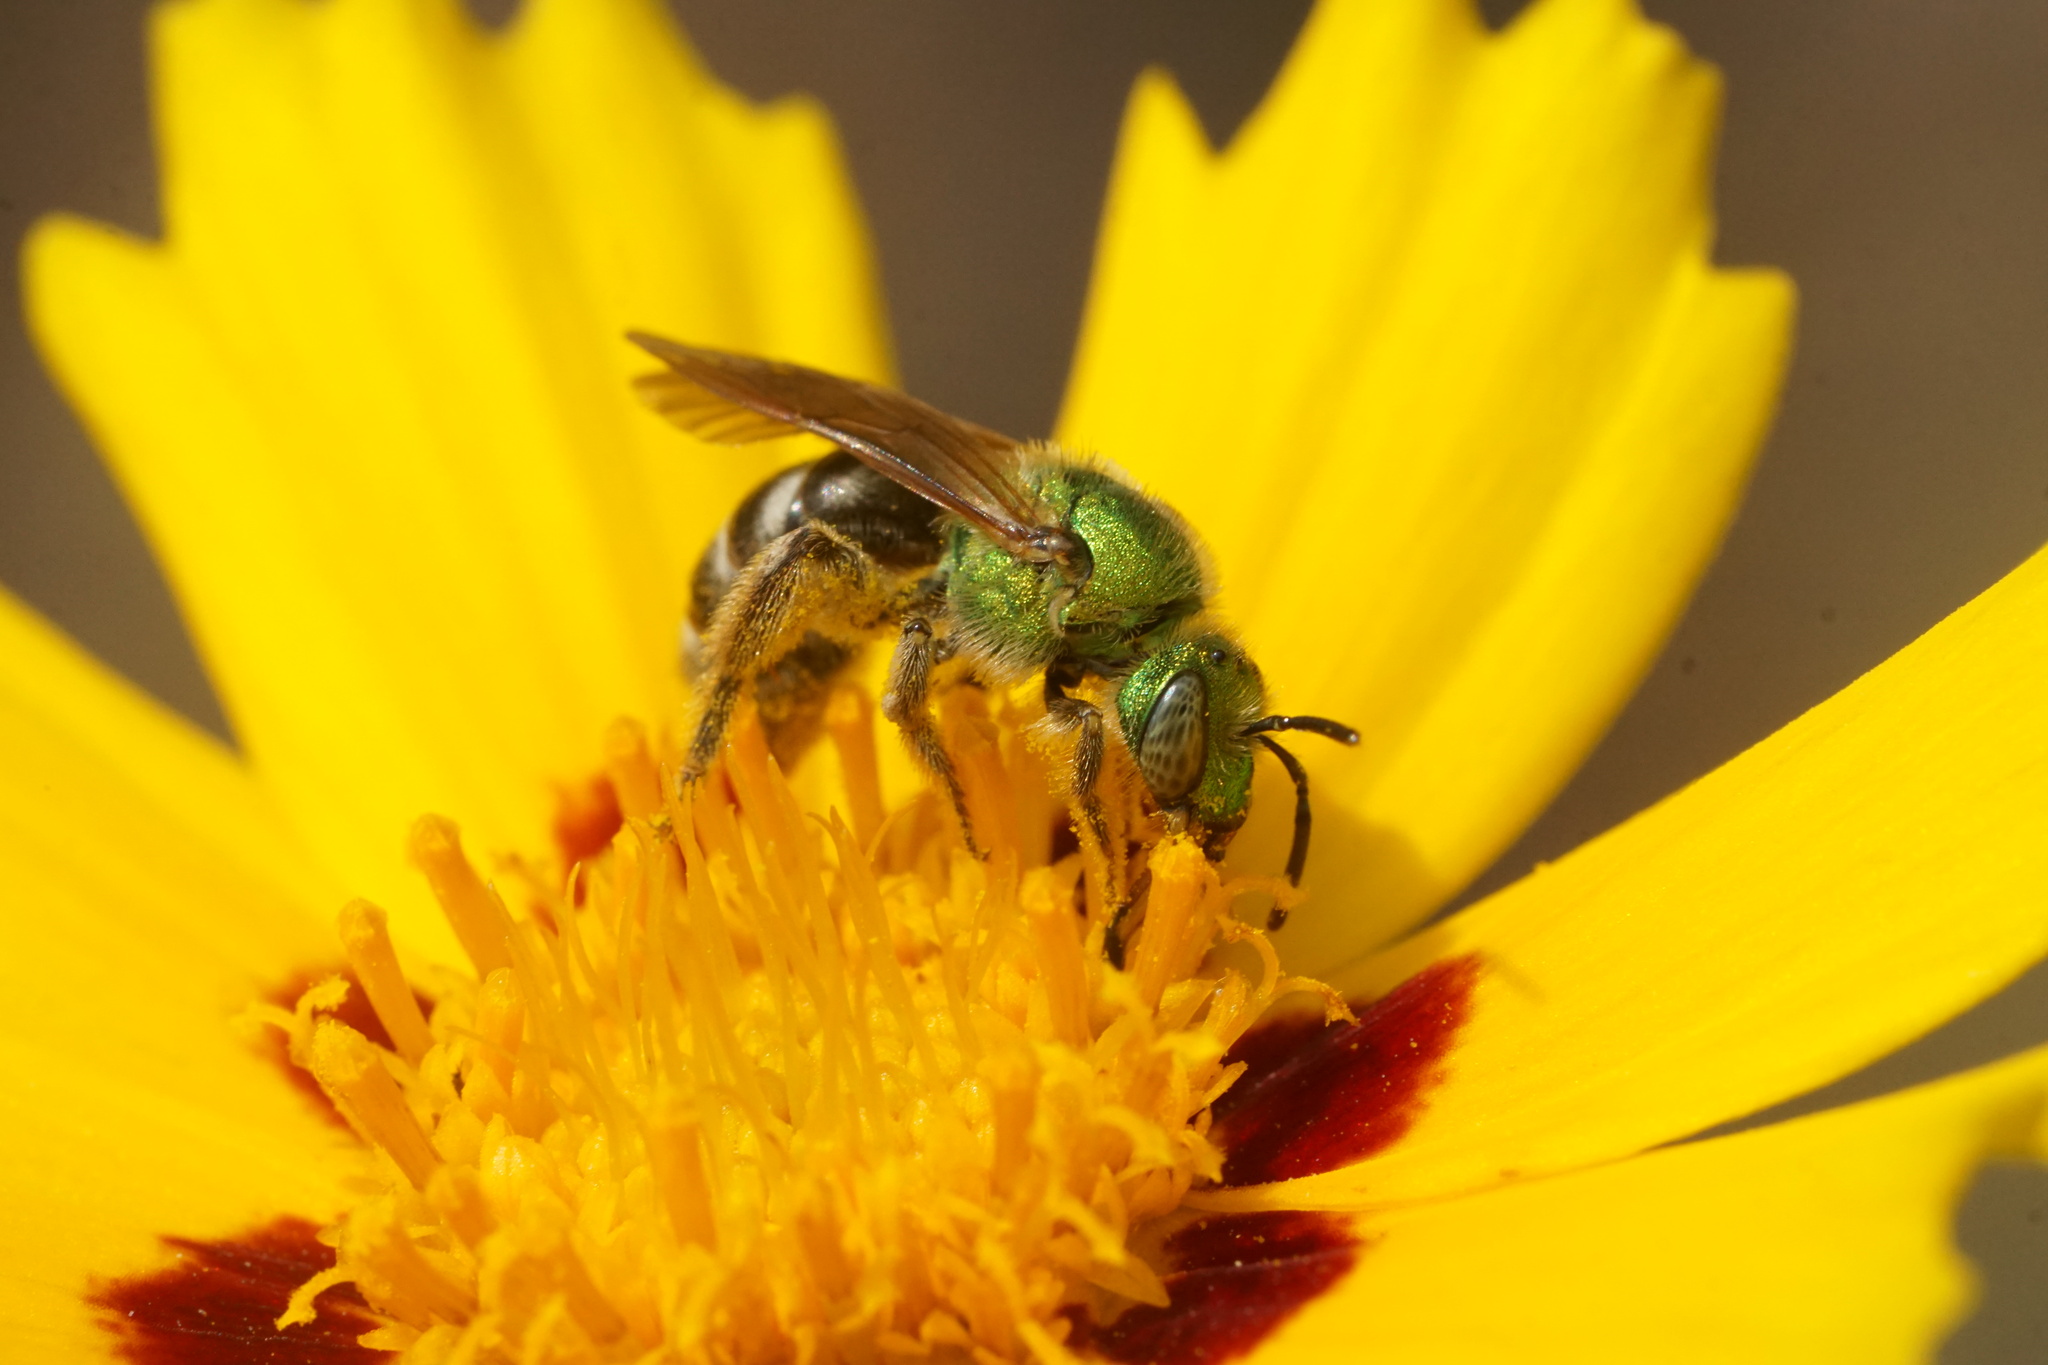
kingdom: Animalia
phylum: Arthropoda
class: Insecta
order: Hymenoptera
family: Halictidae
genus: Agapostemon
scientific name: Agapostemon virescens
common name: Bicolored striped sweat bee
